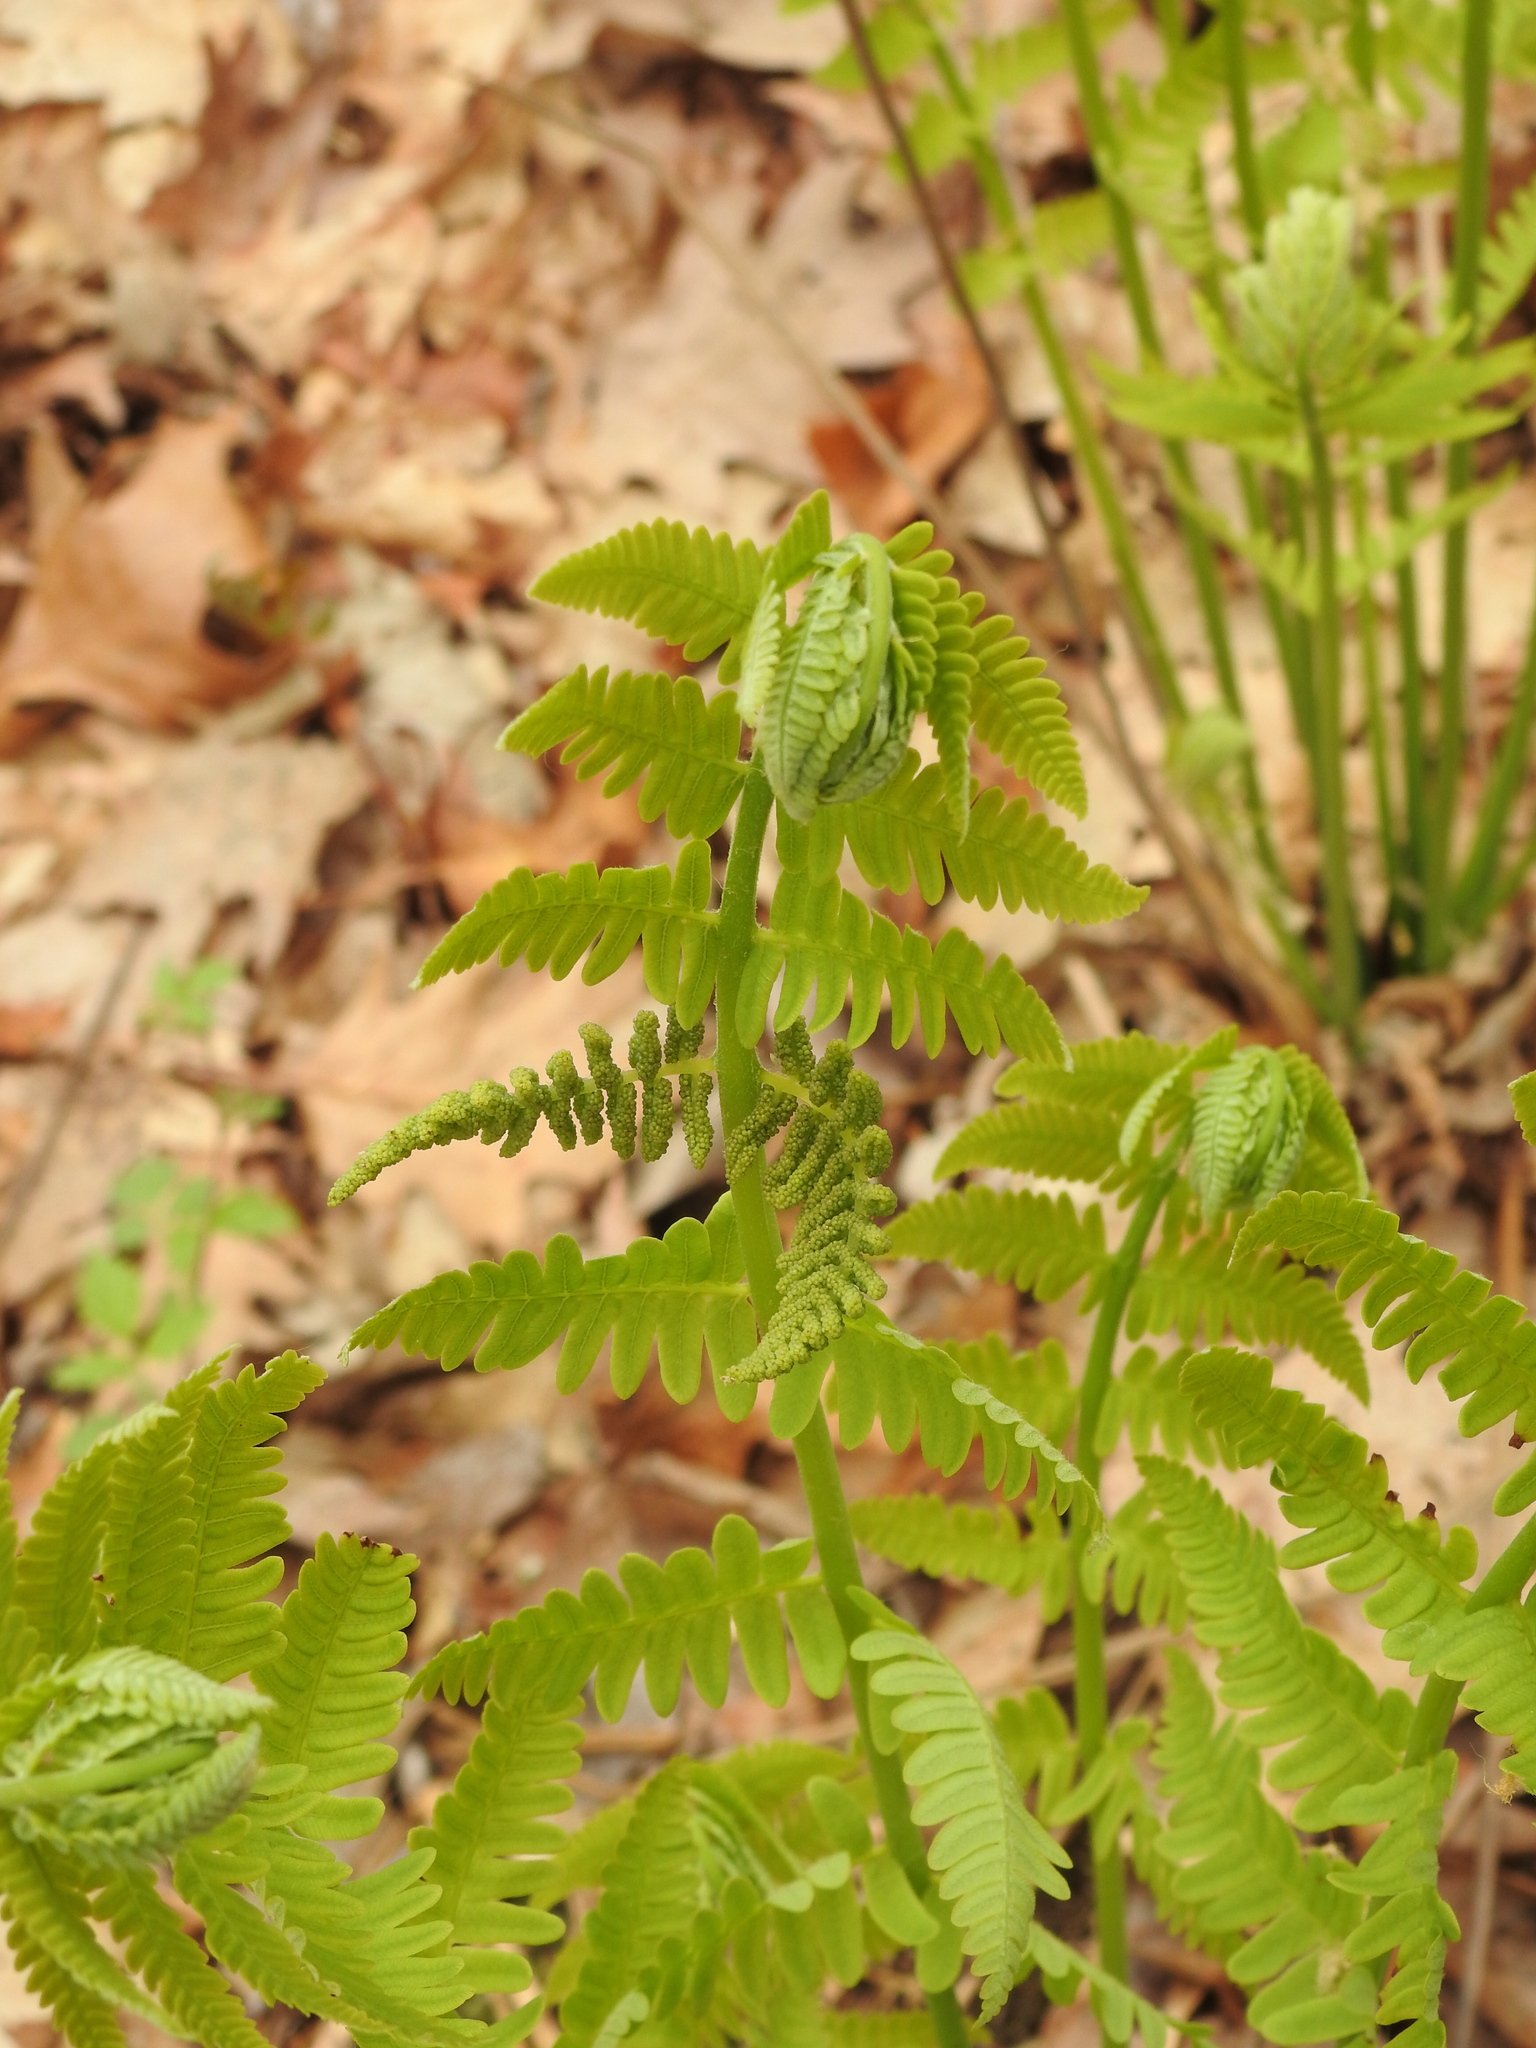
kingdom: Plantae
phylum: Tracheophyta
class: Polypodiopsida
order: Osmundales
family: Osmundaceae
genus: Claytosmunda
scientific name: Claytosmunda claytoniana
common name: Clayton's fern
